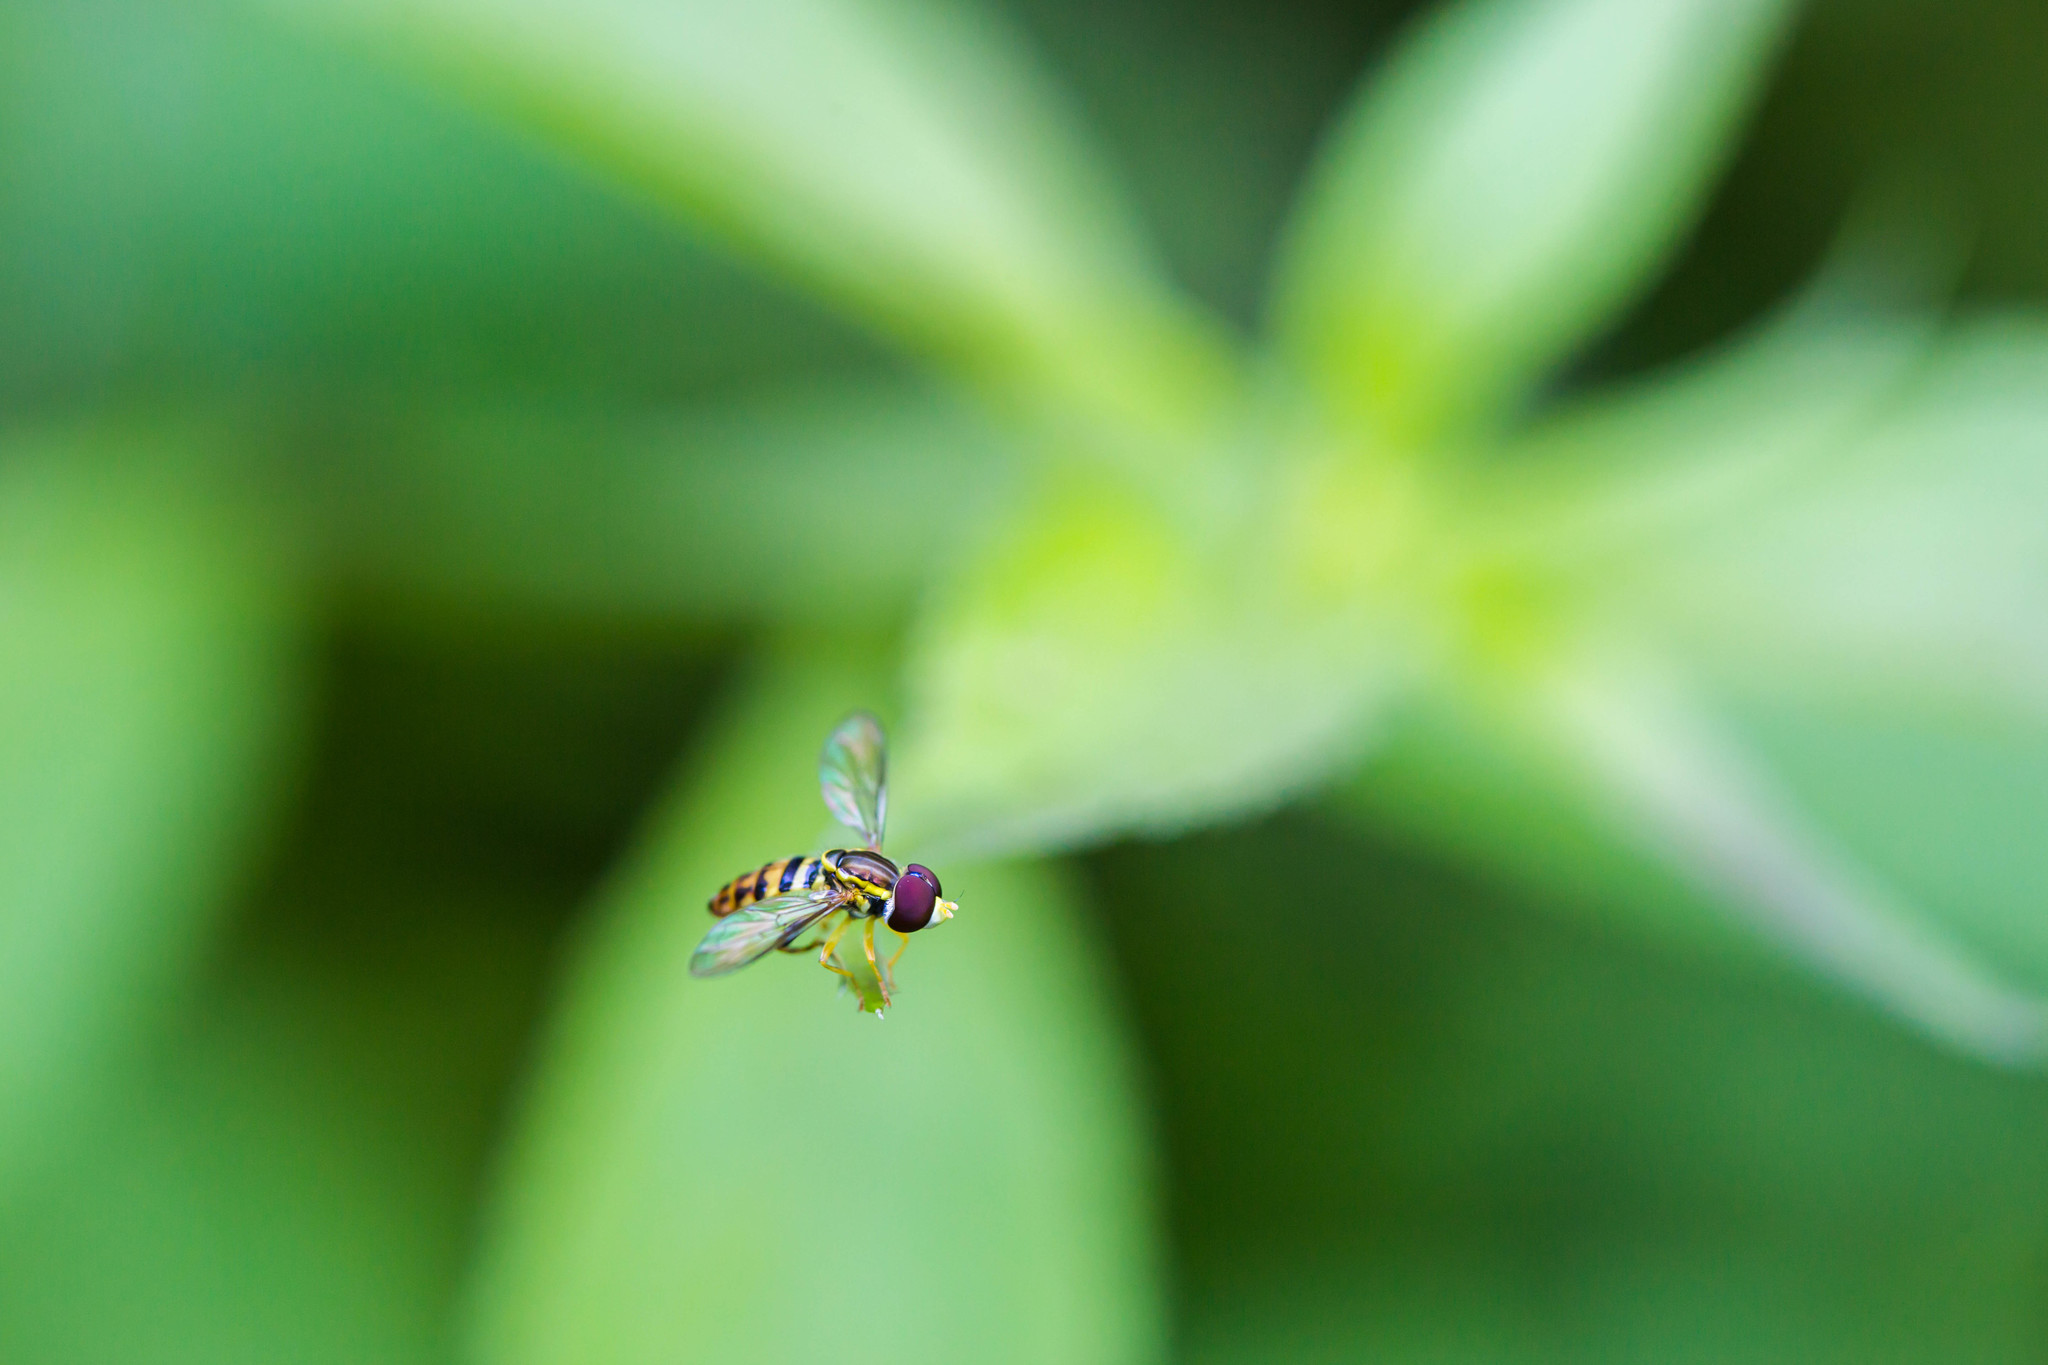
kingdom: Animalia
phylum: Arthropoda
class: Insecta
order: Diptera
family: Syrphidae
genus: Toxomerus
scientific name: Toxomerus geminatus
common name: Eastern calligrapher
